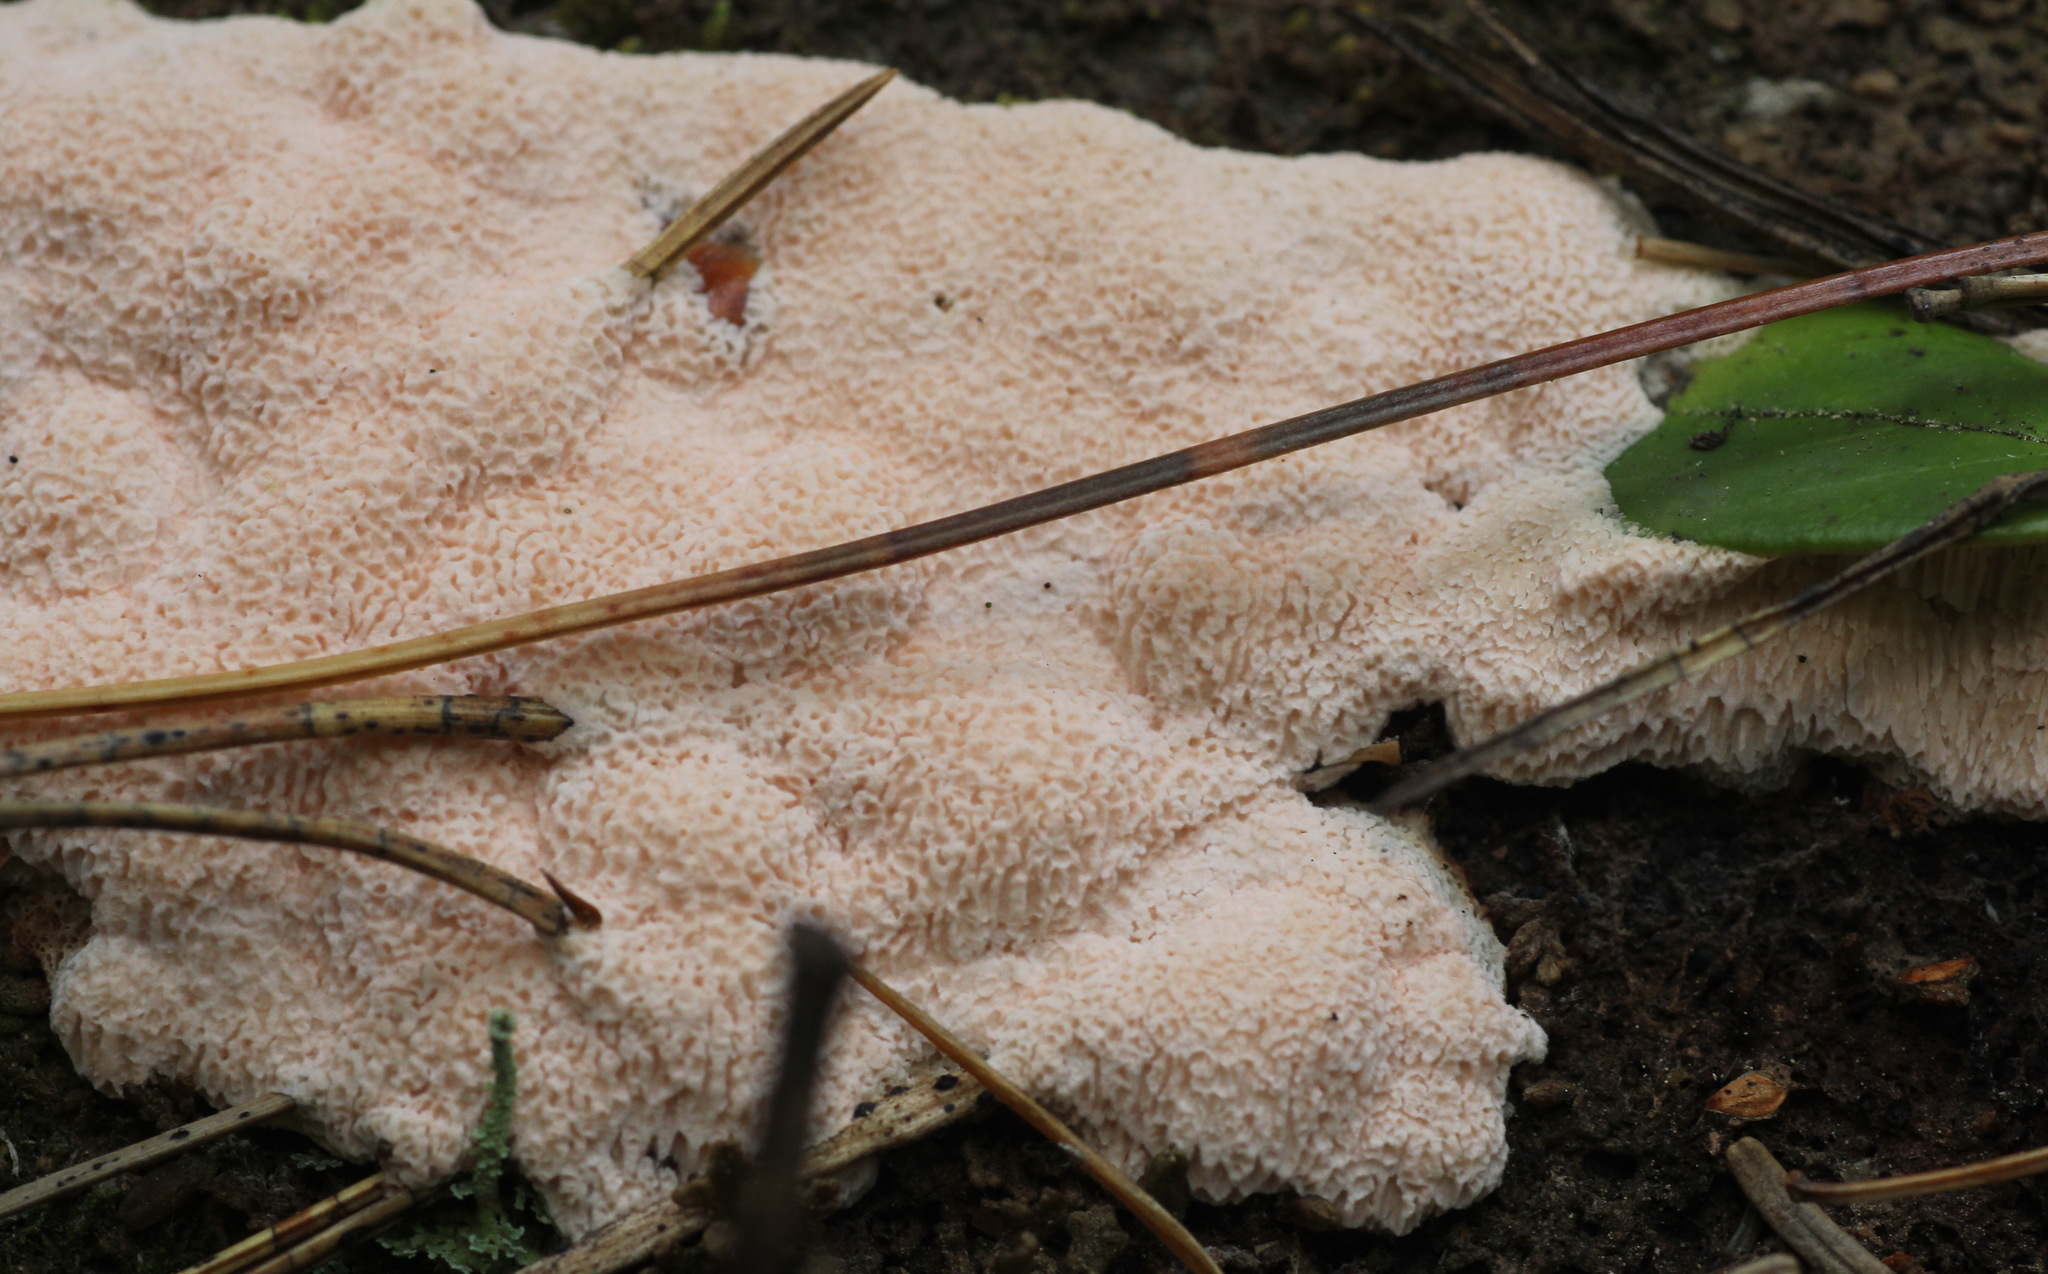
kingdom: Fungi
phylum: Basidiomycota
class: Agaricomycetes
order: Polyporales
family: Polyporaceae
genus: Rhodonia
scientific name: Rhodonia placenta
